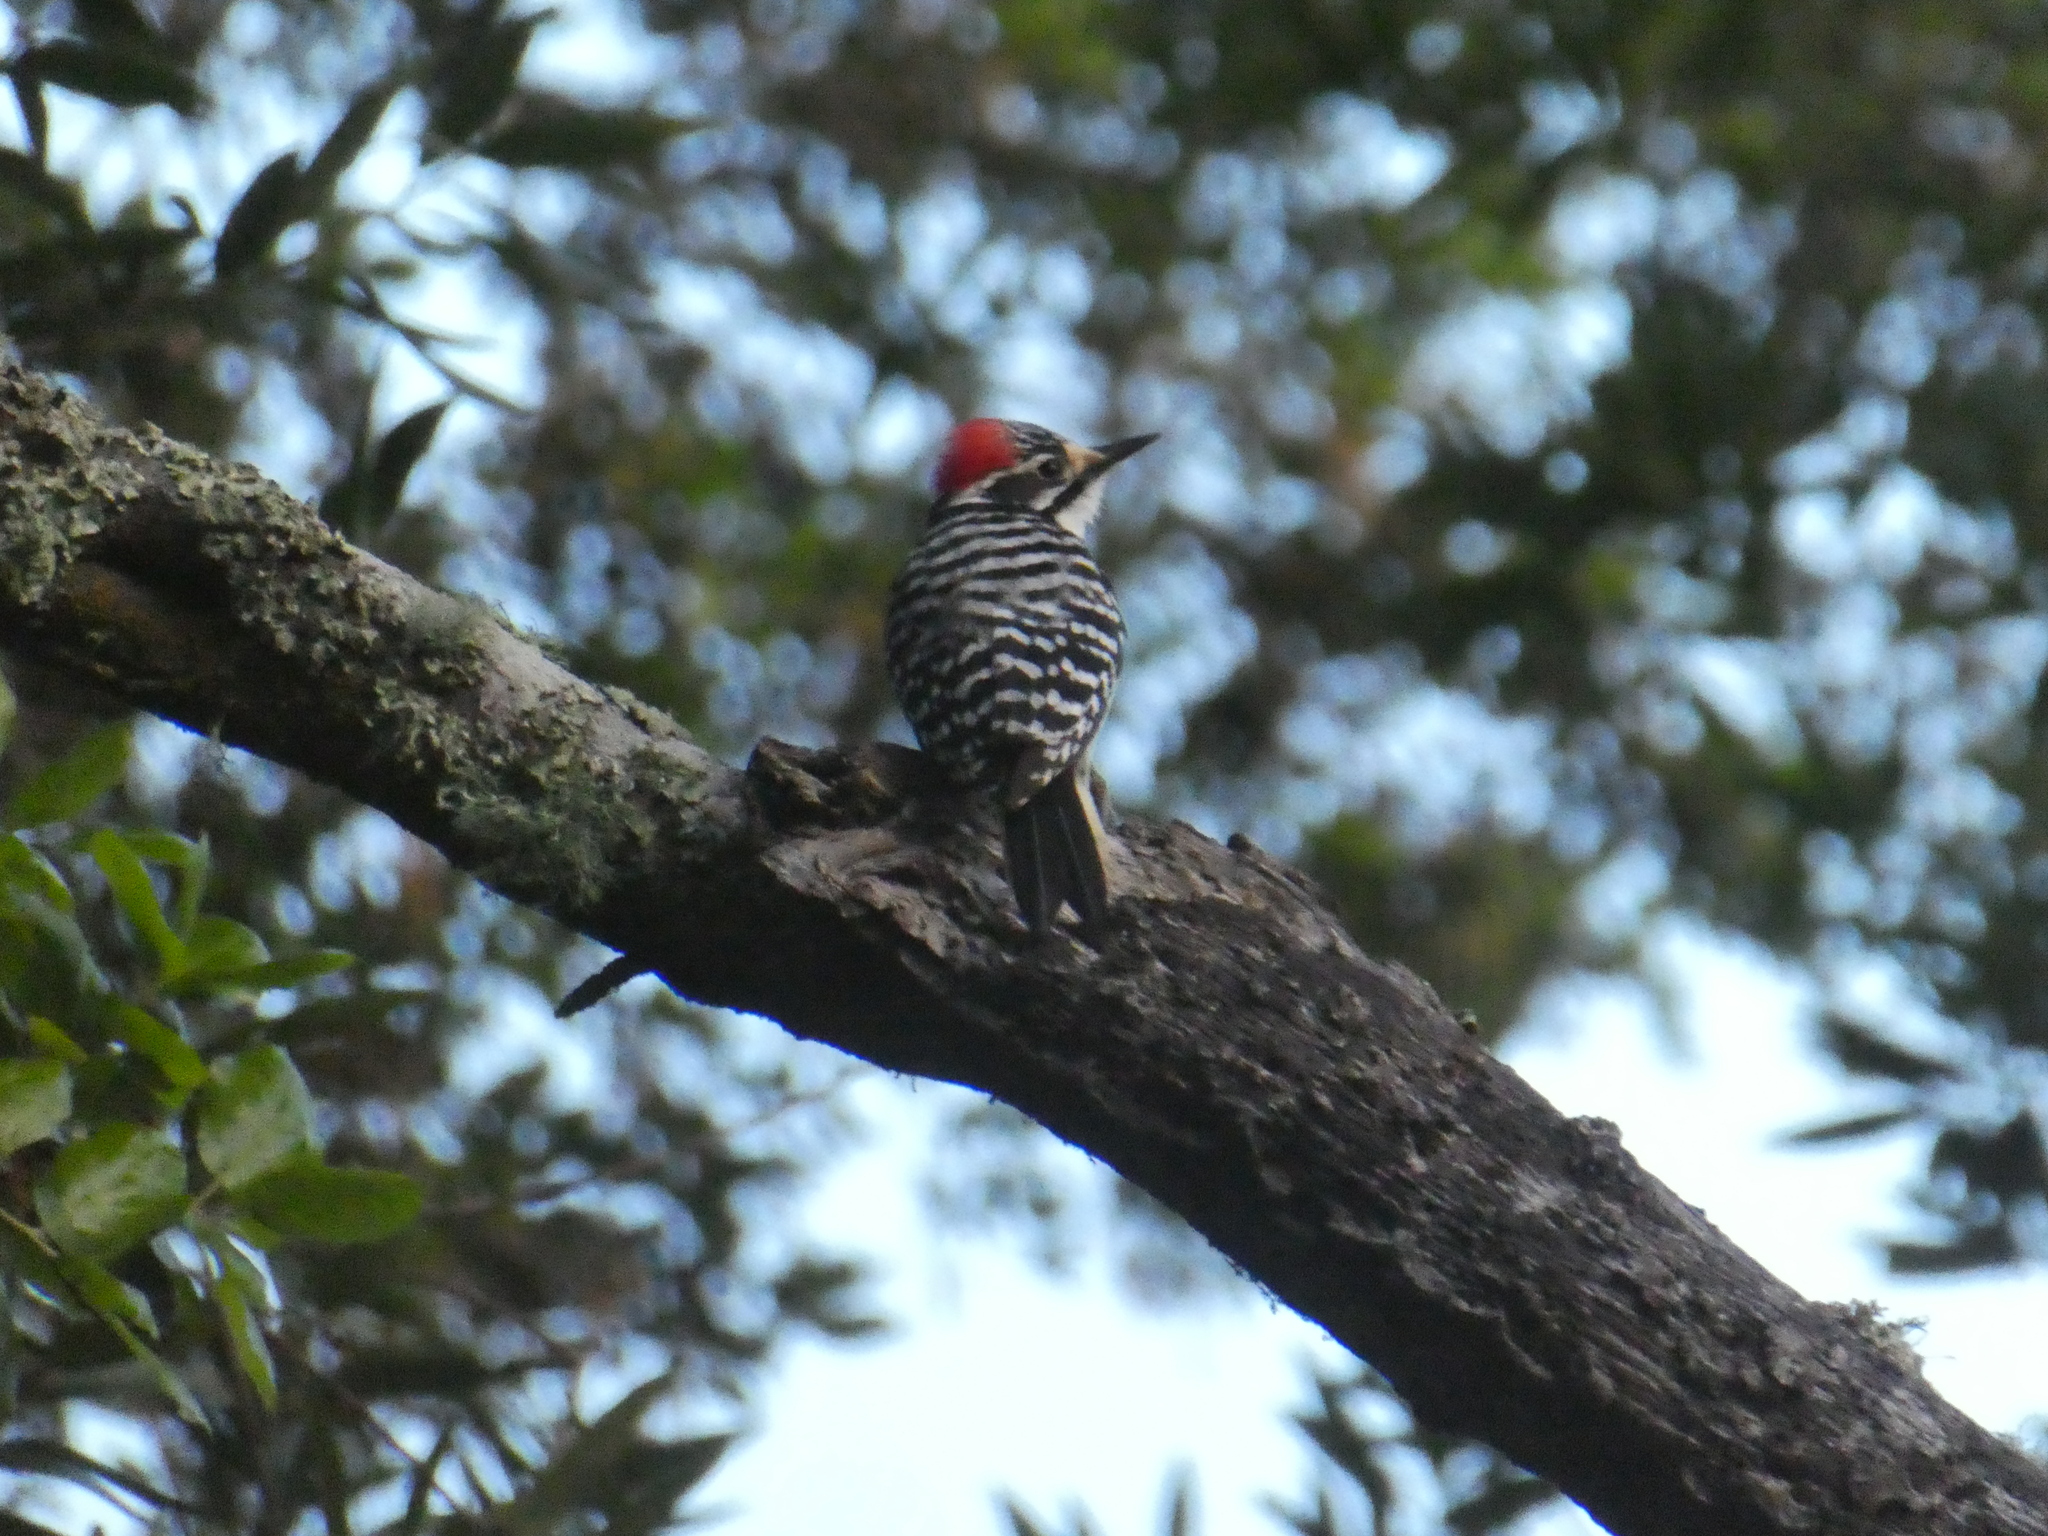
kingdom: Animalia
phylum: Chordata
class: Aves
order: Piciformes
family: Picidae
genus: Dryobates
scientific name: Dryobates nuttallii
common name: Nuttall's woodpecker
